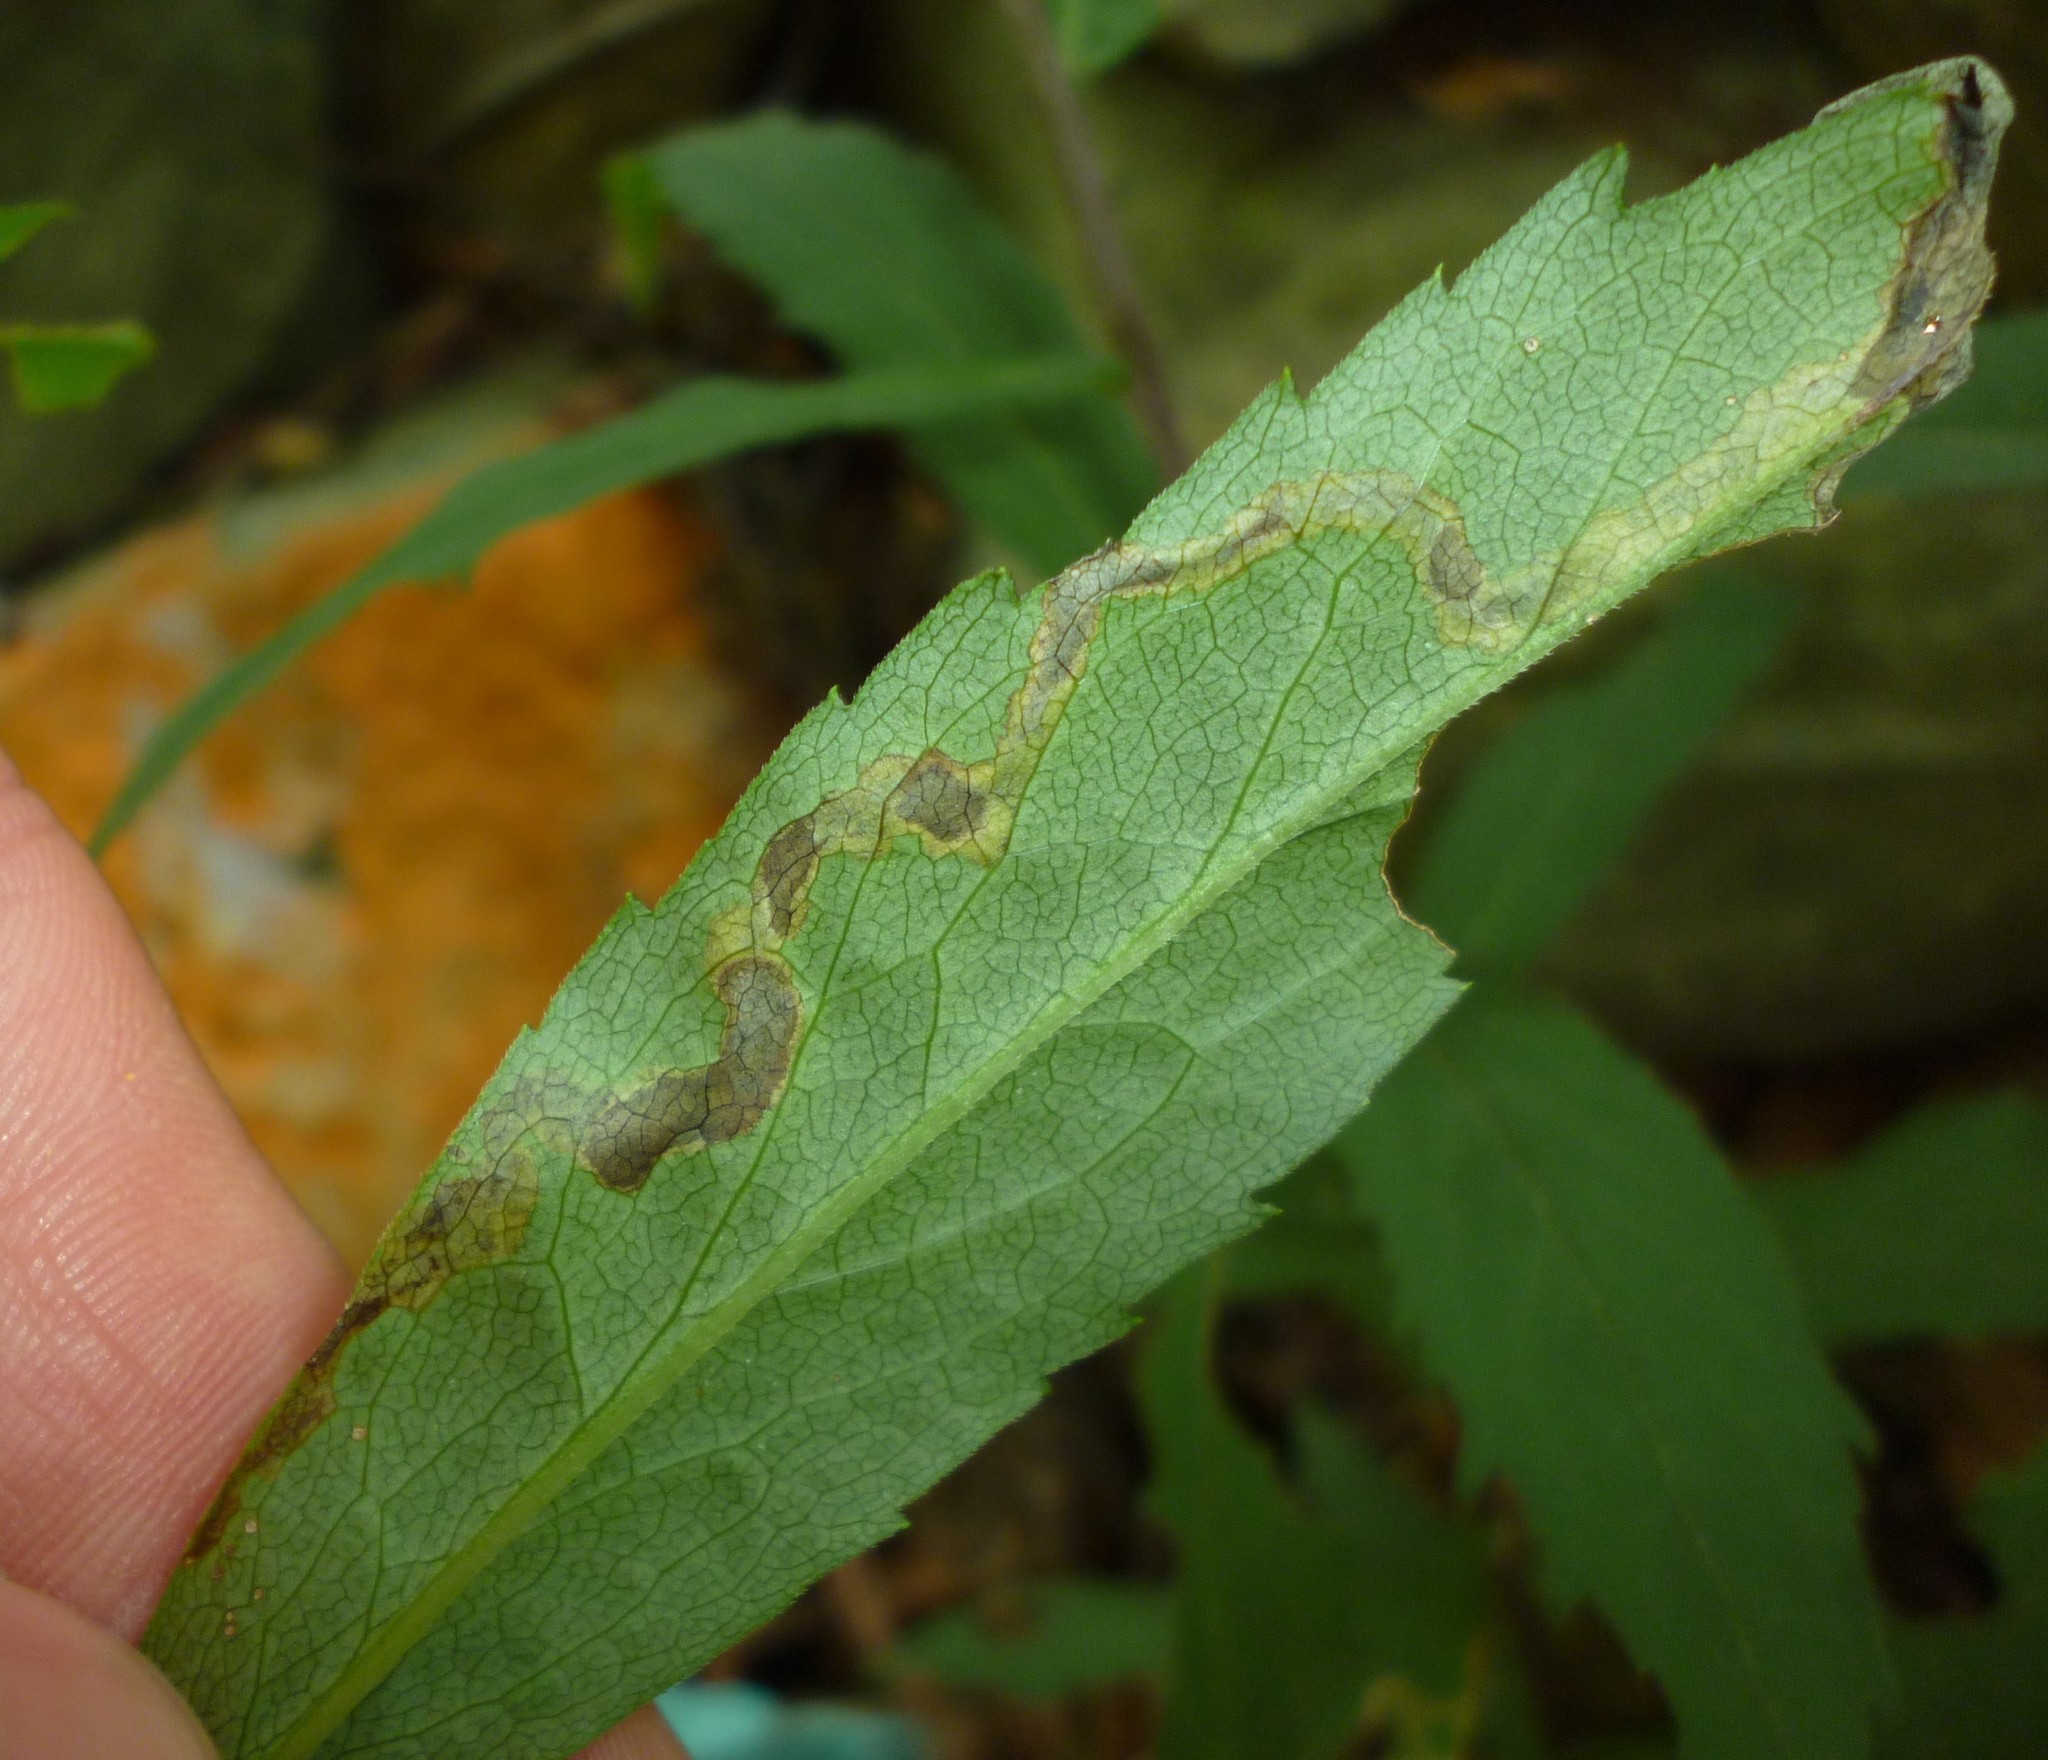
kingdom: Animalia
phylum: Arthropoda
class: Insecta
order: Diptera
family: Agromyzidae
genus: Nemorimyza
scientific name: Nemorimyza posticata
